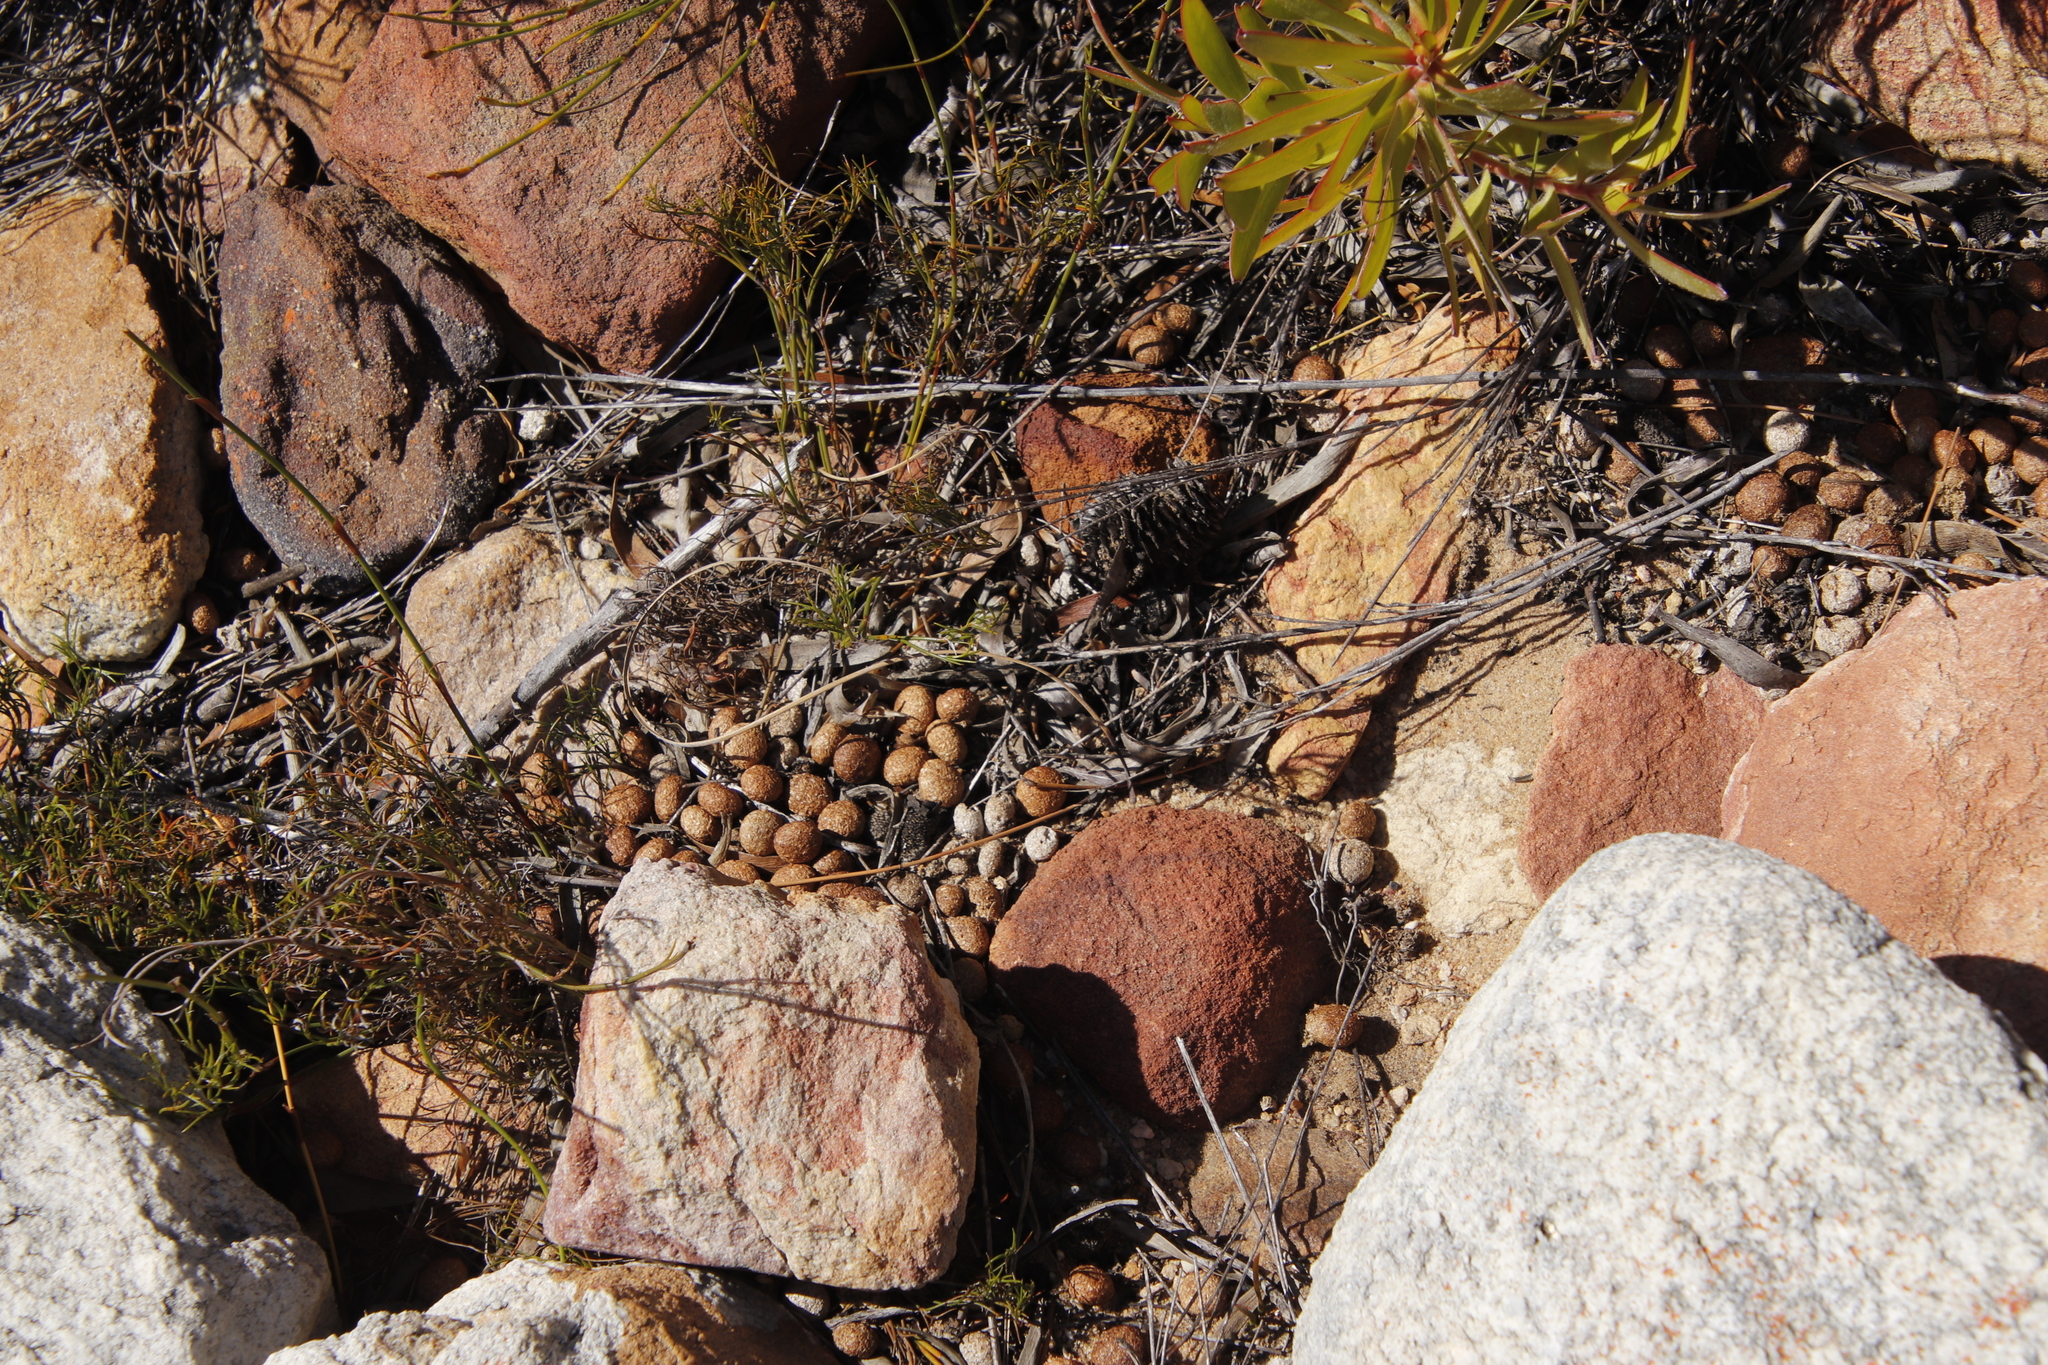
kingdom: Animalia
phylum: Chordata
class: Mammalia
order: Lagomorpha
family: Leporidae
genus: Pronolagus
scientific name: Pronolagus saundersiae
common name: Hewitt's red rock hare
